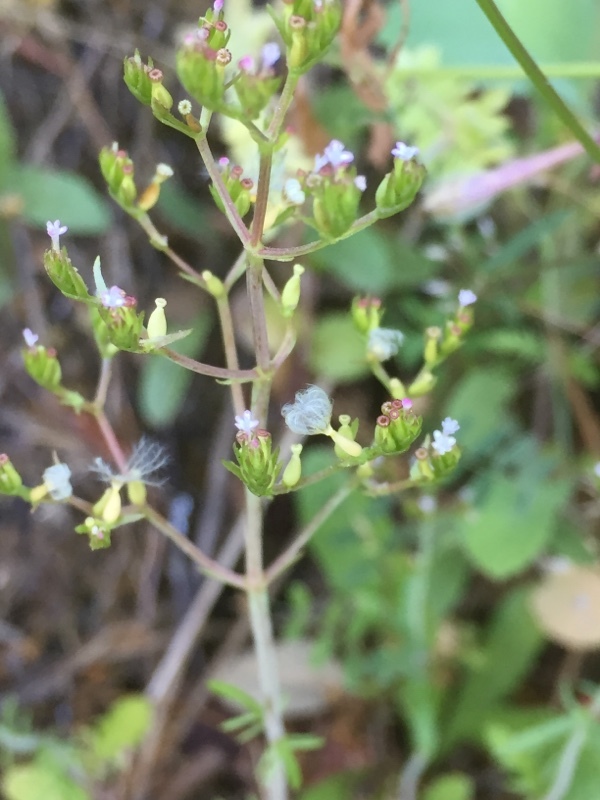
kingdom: Plantae
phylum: Tracheophyta
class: Magnoliopsida
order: Dipsacales
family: Caprifoliaceae
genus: Centranthus
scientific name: Centranthus calcitrapae
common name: Annual valerian
